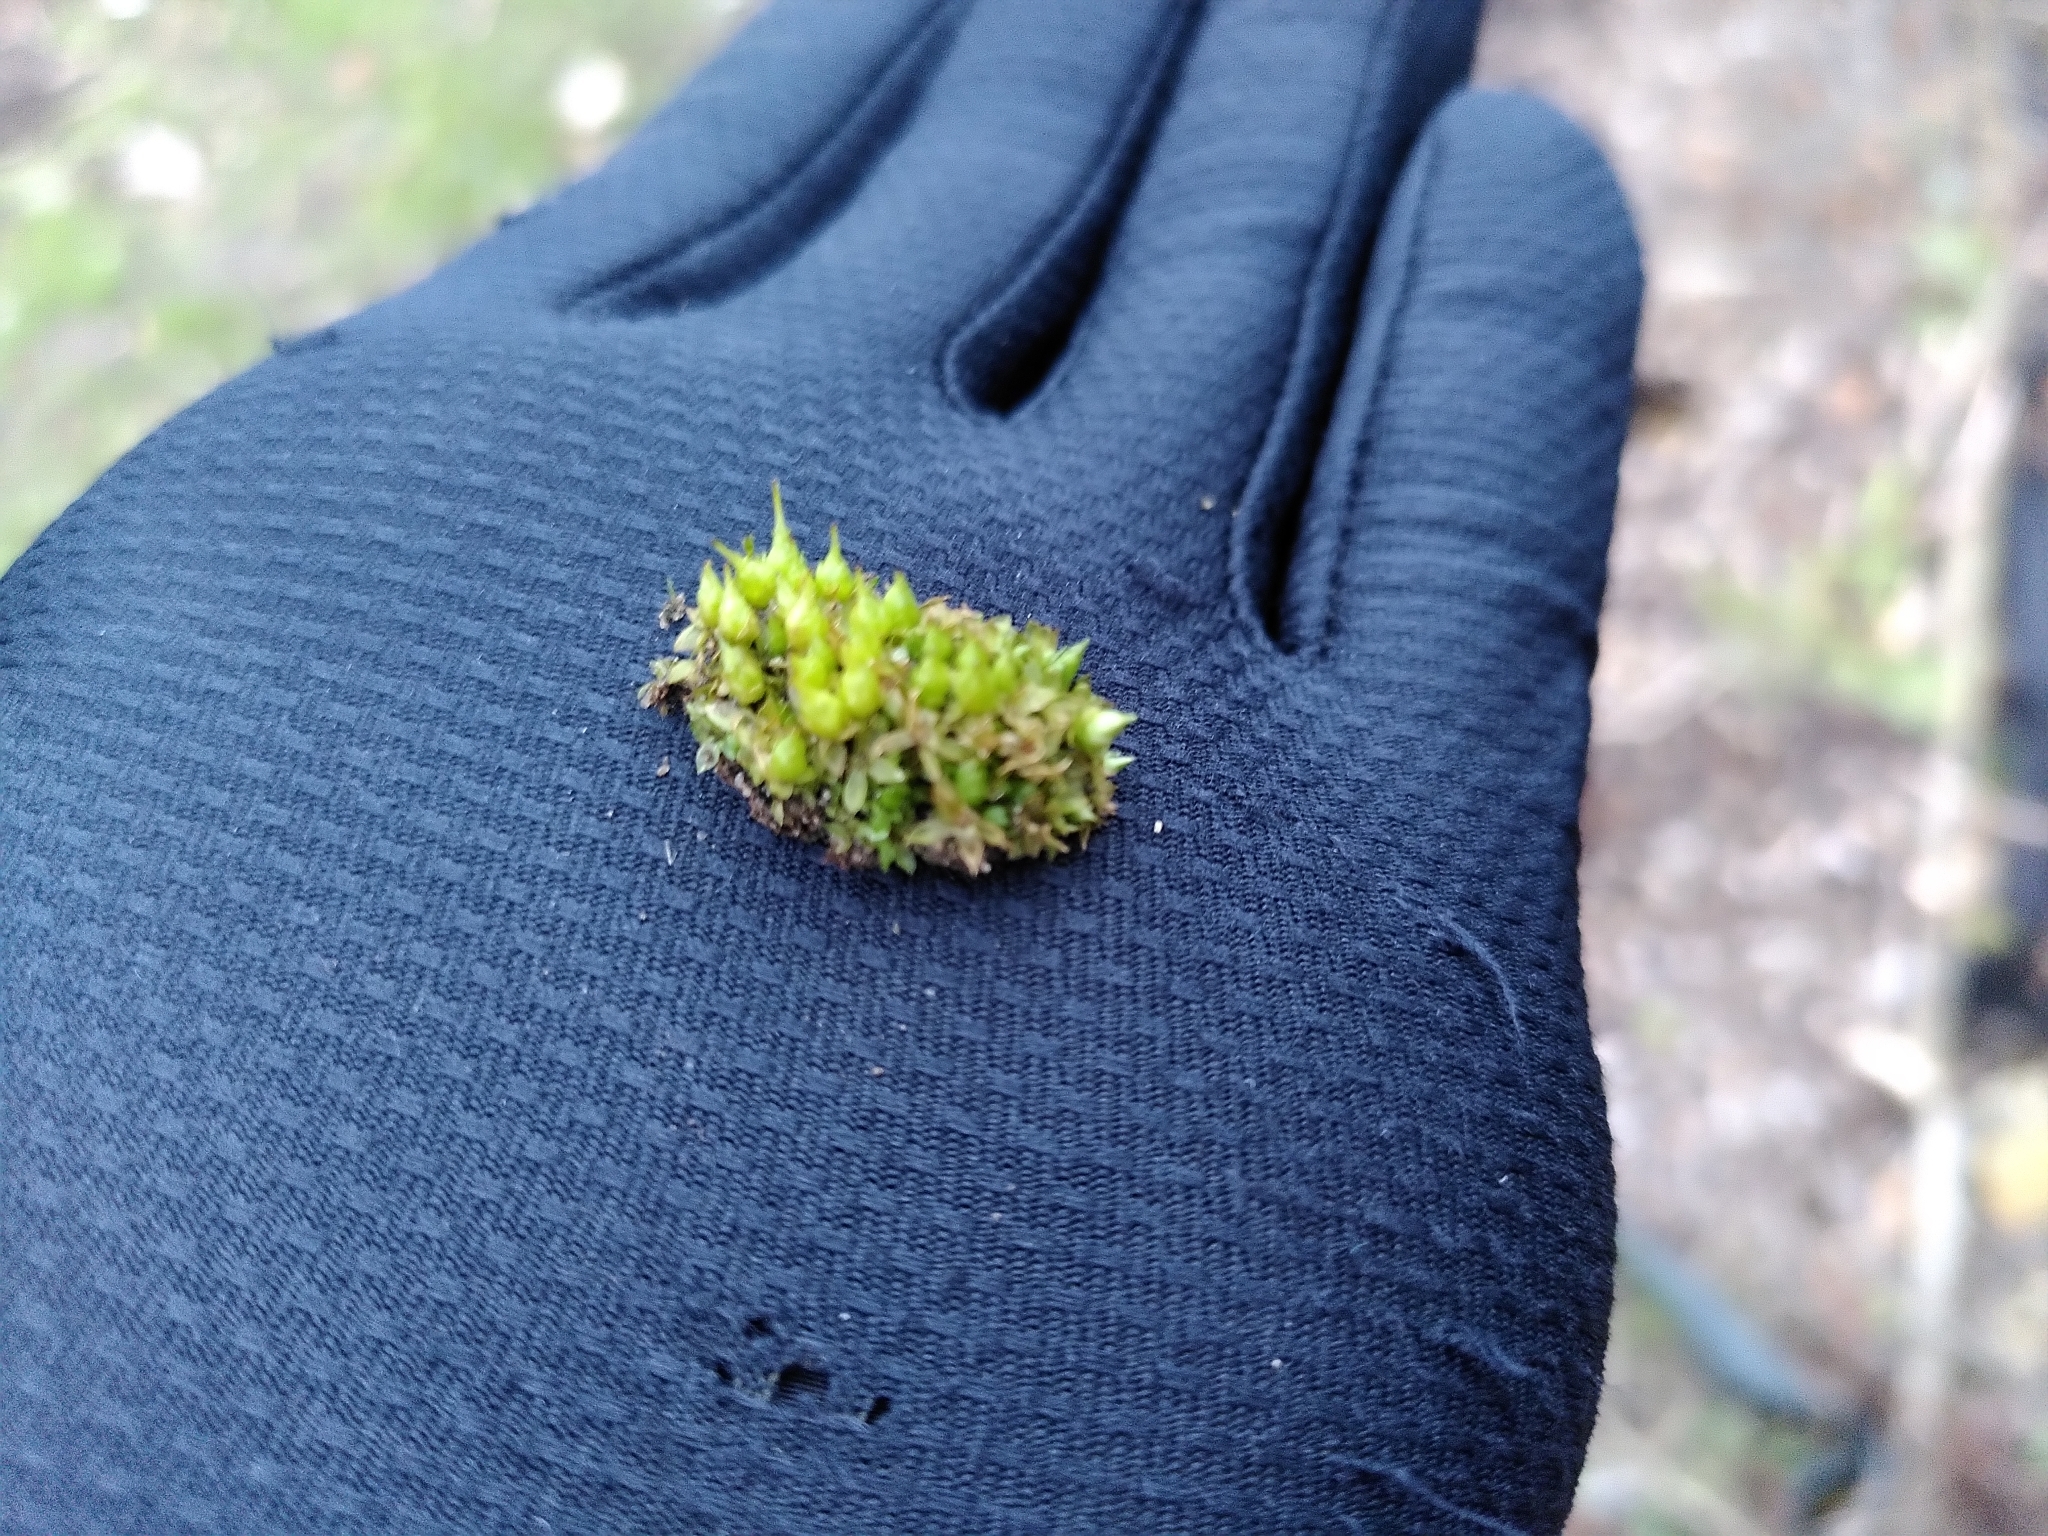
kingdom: Plantae
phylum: Bryophyta
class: Bryopsida
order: Funariales
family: Funariaceae
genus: Funaria
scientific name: Funaria hygrometrica
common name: Common cord moss
